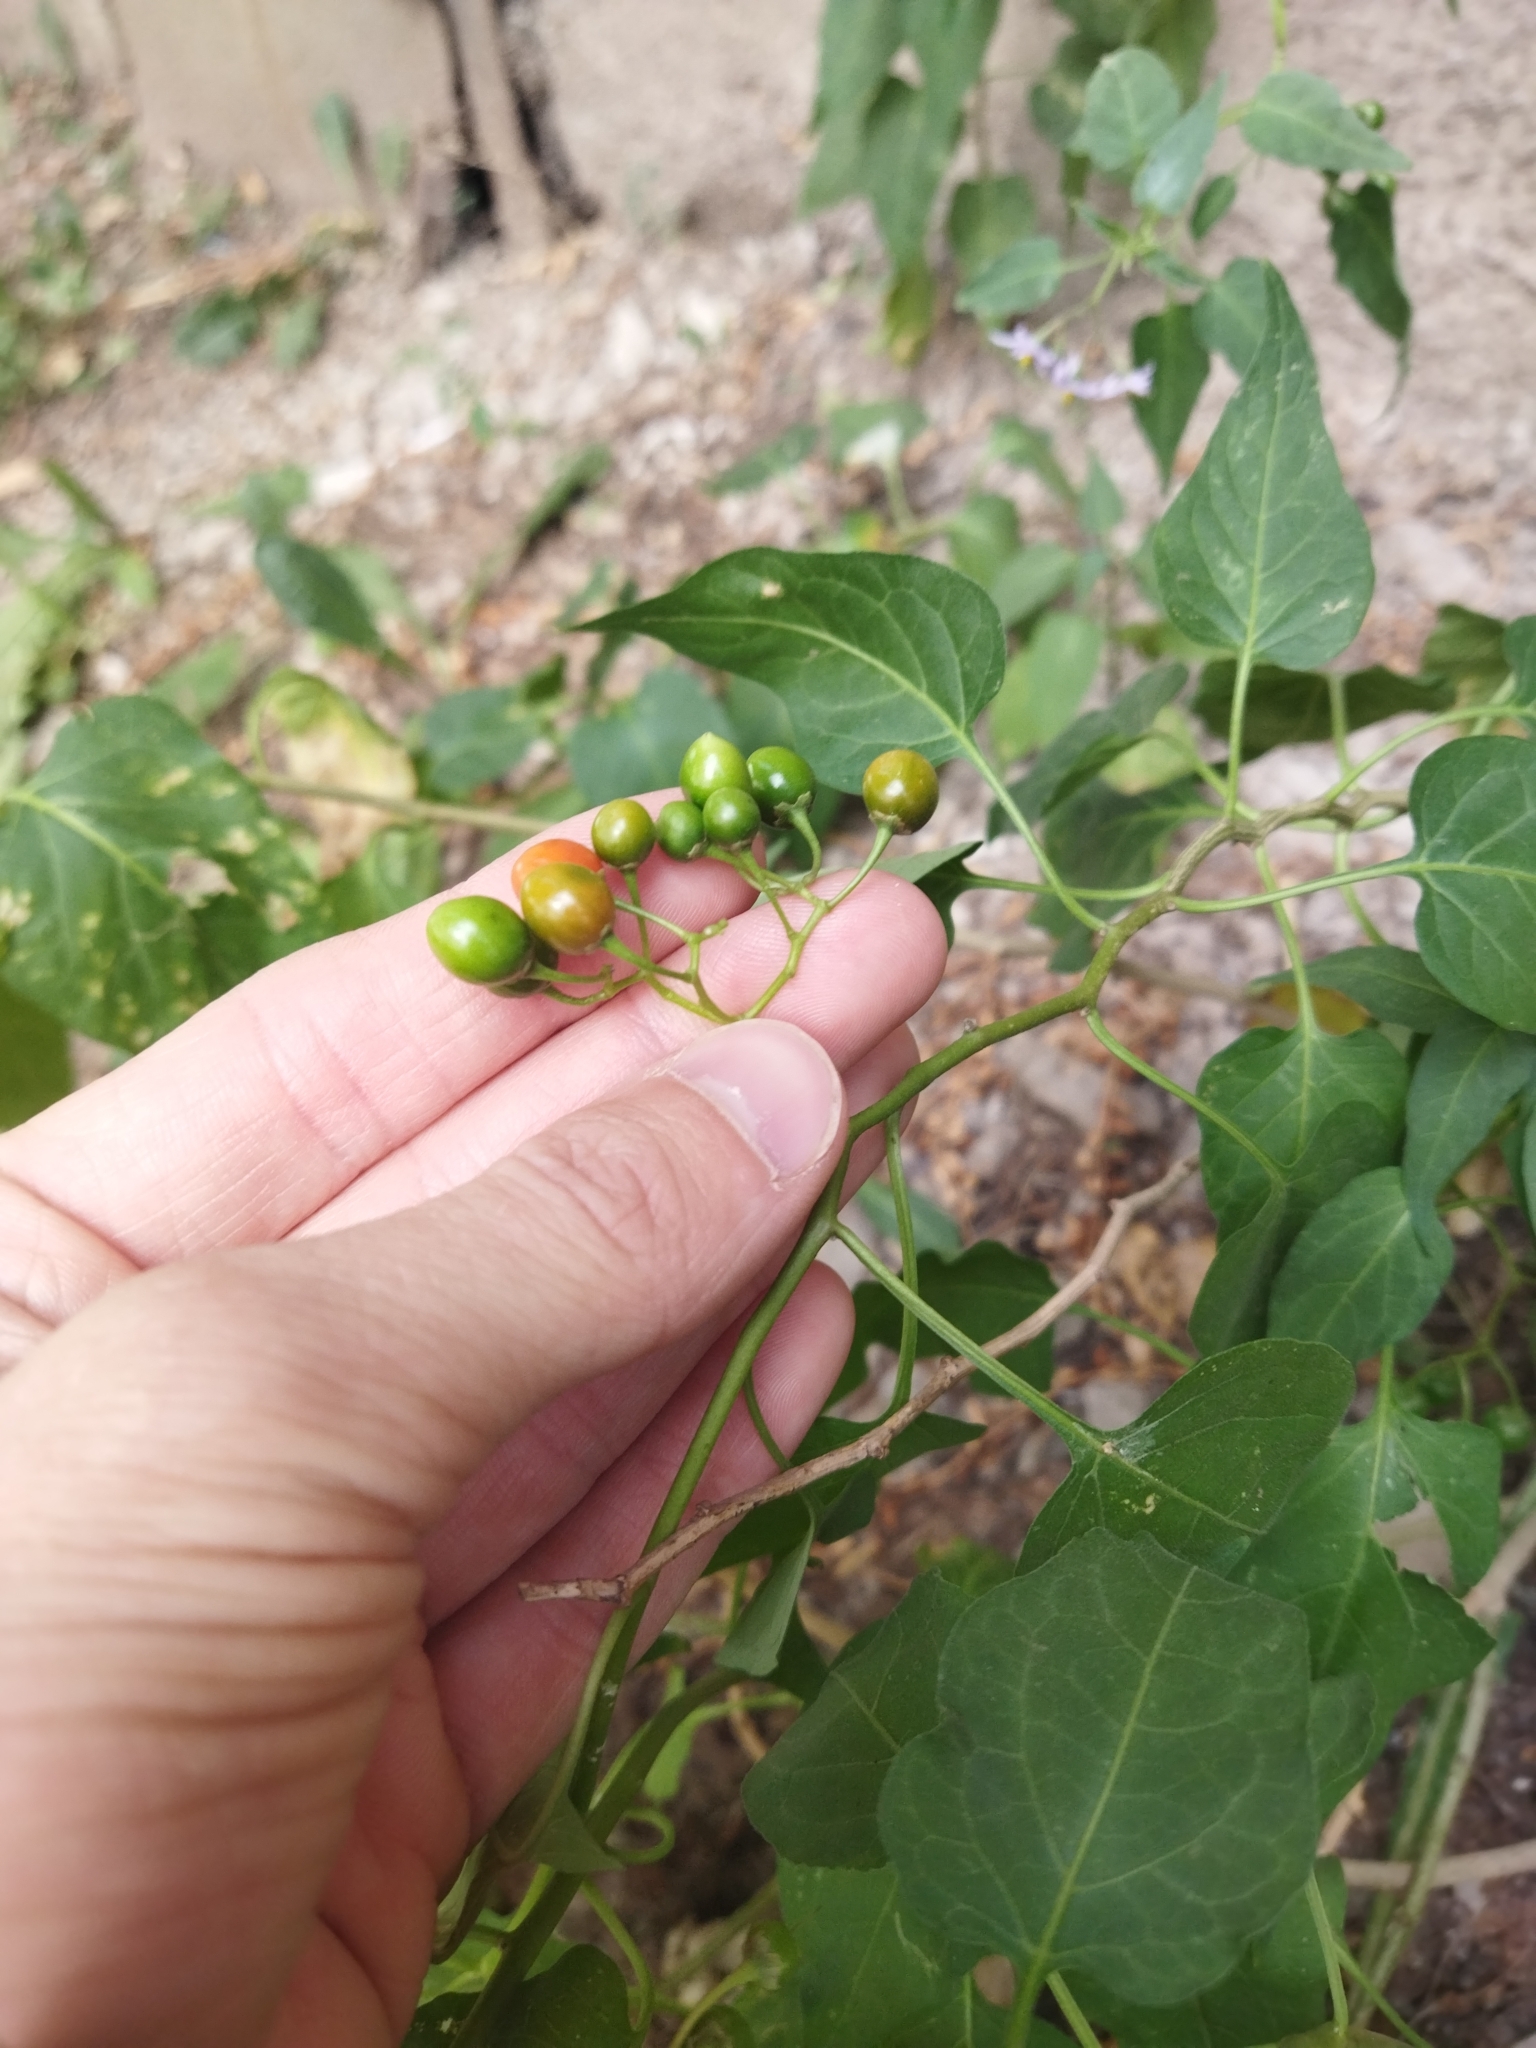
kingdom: Plantae
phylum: Tracheophyta
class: Magnoliopsida
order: Solanales
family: Solanaceae
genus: Solanum
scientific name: Solanum dulcamara
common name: Climbing nightshade
